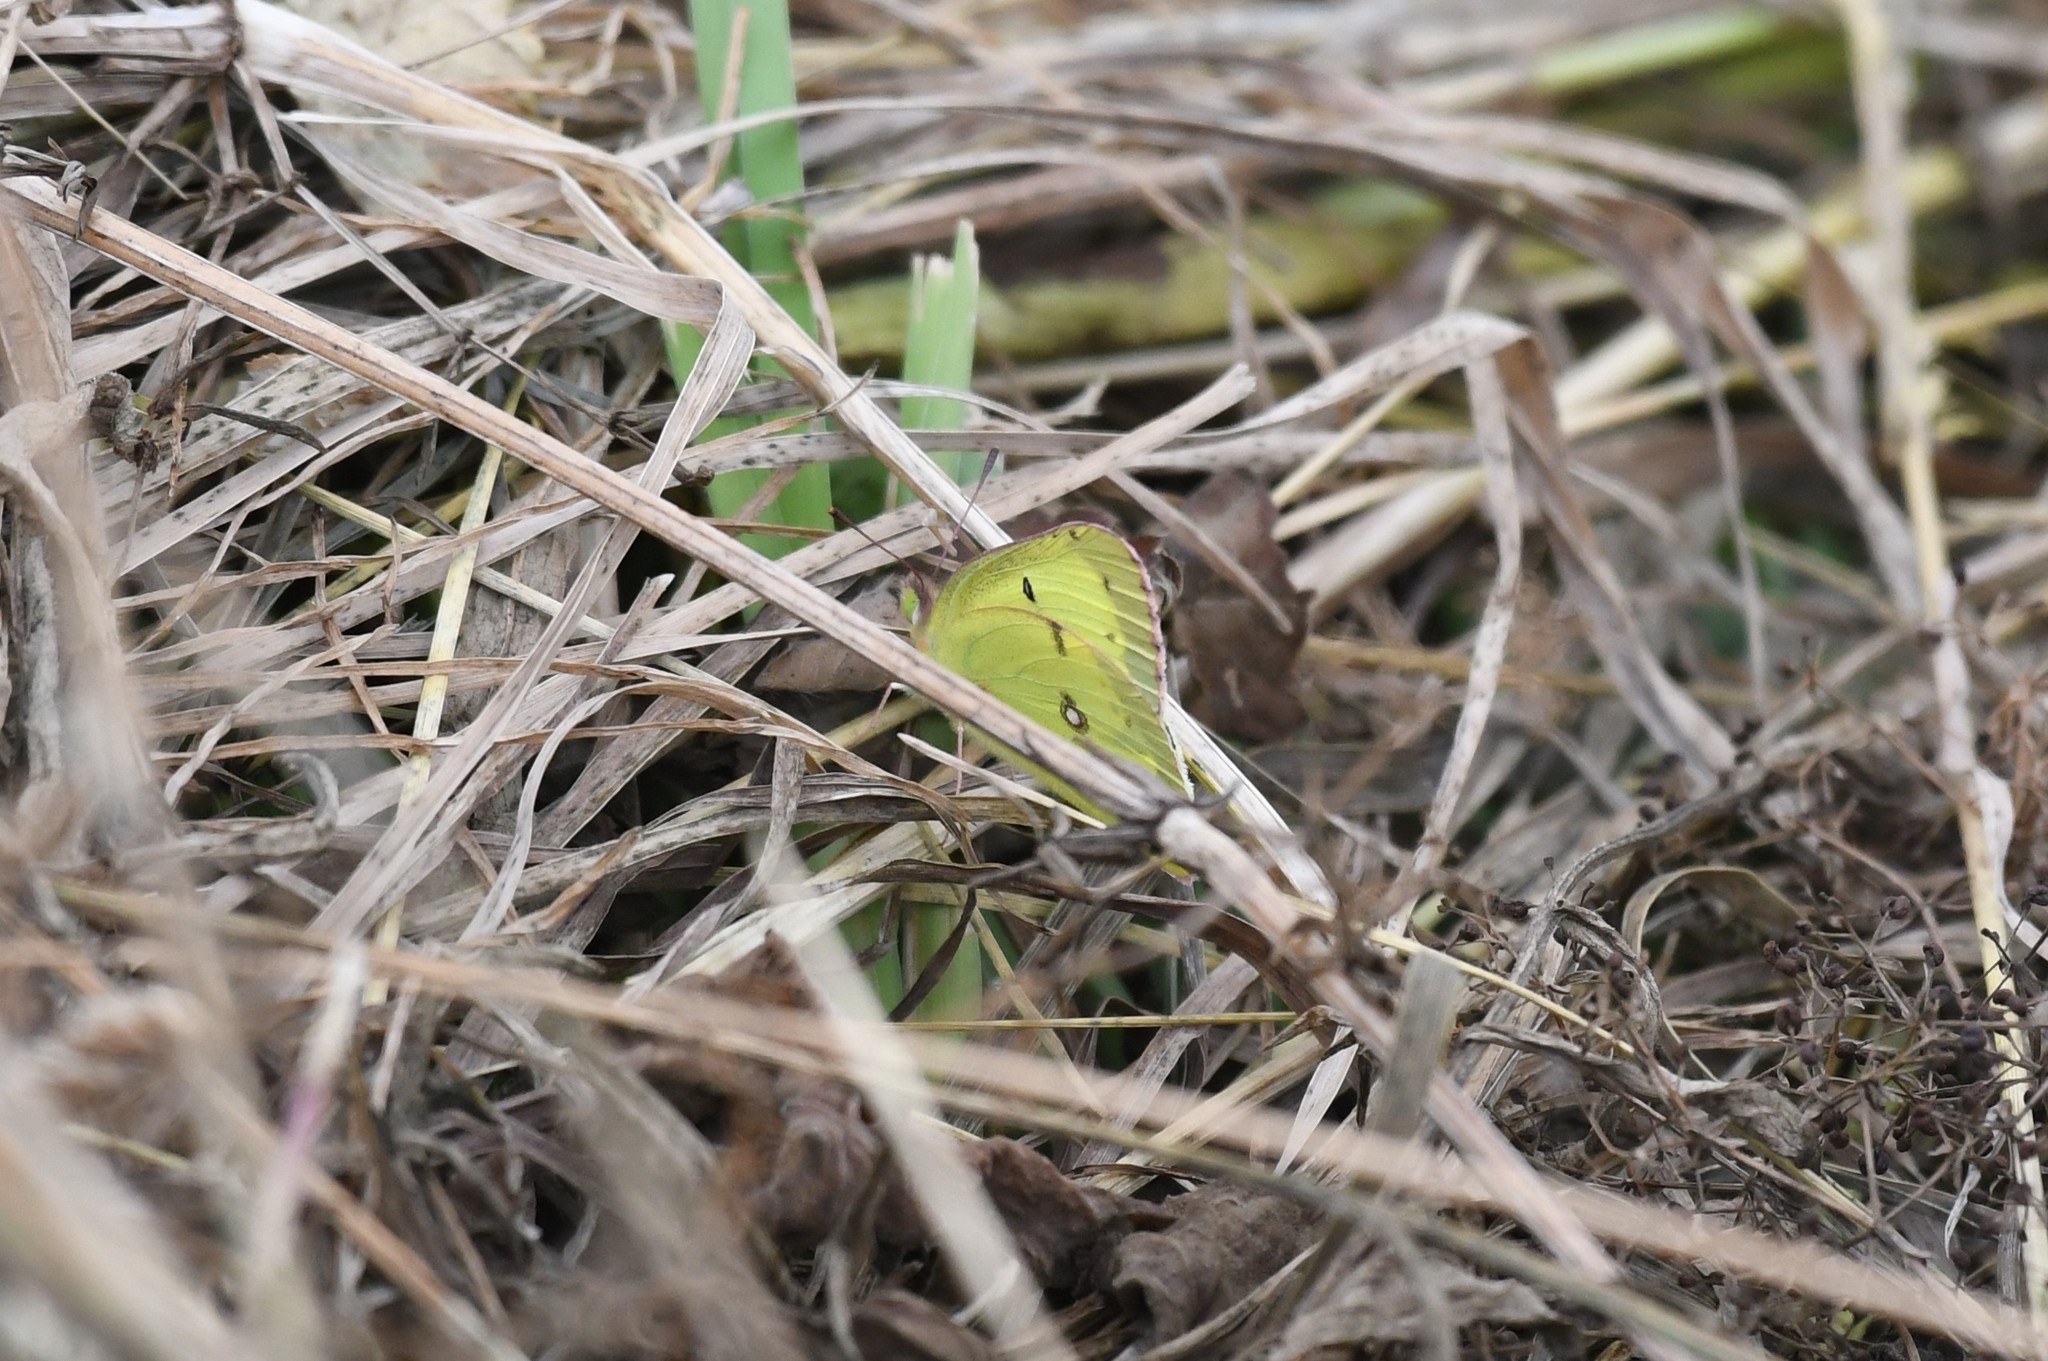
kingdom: Animalia
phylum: Arthropoda
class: Insecta
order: Lepidoptera
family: Pieridae
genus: Colias
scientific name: Colias philodice
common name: Clouded sulphur
